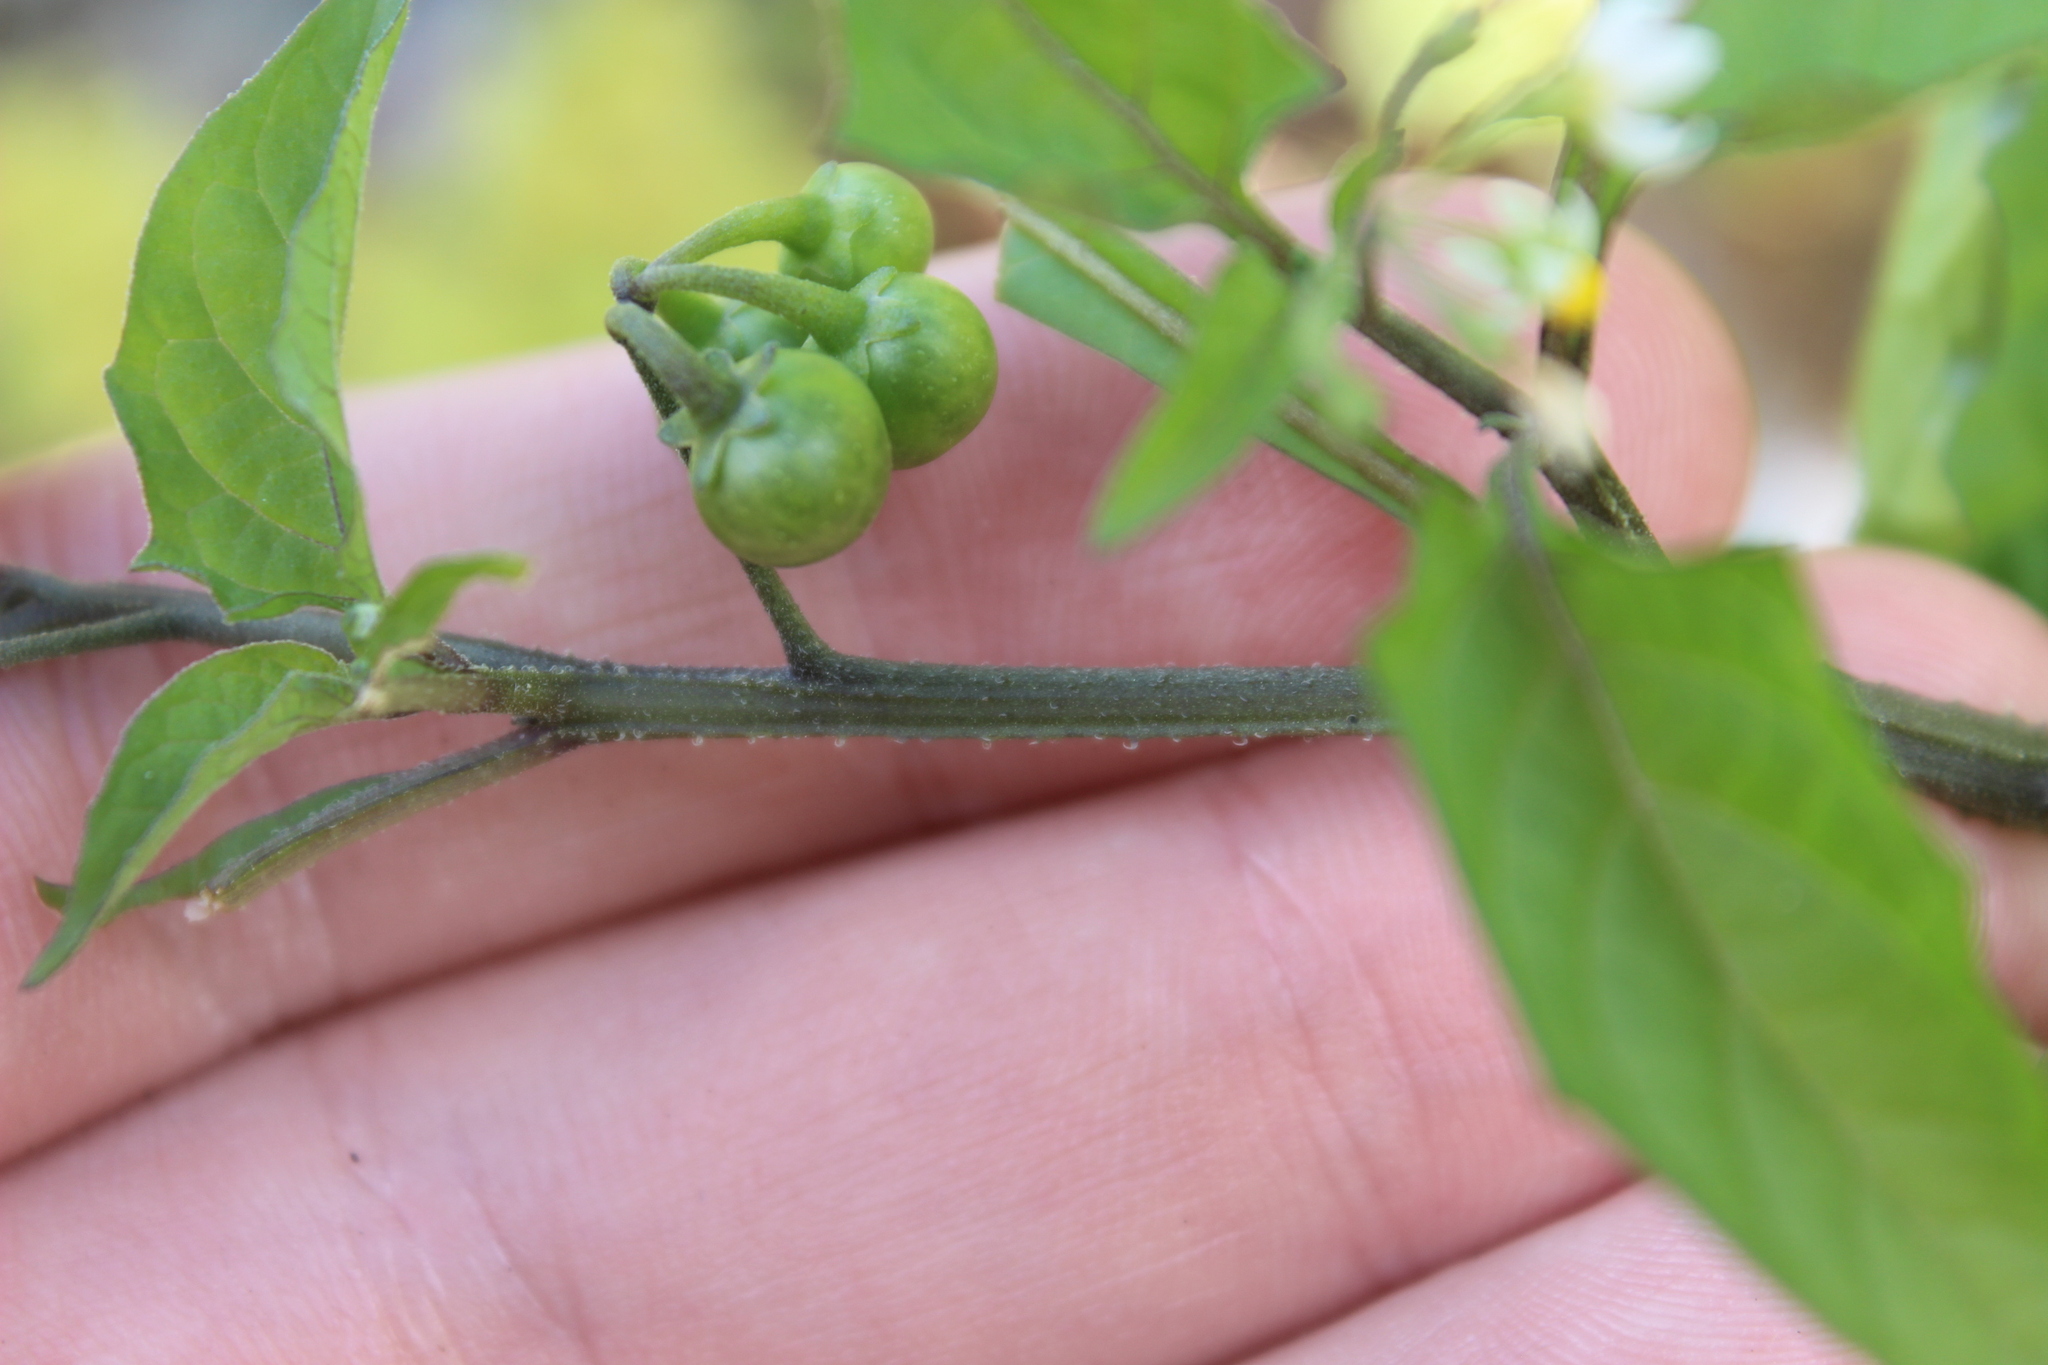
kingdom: Plantae
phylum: Tracheophyta
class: Magnoliopsida
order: Solanales
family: Solanaceae
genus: Solanum
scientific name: Solanum americanum
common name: American black nightshade
